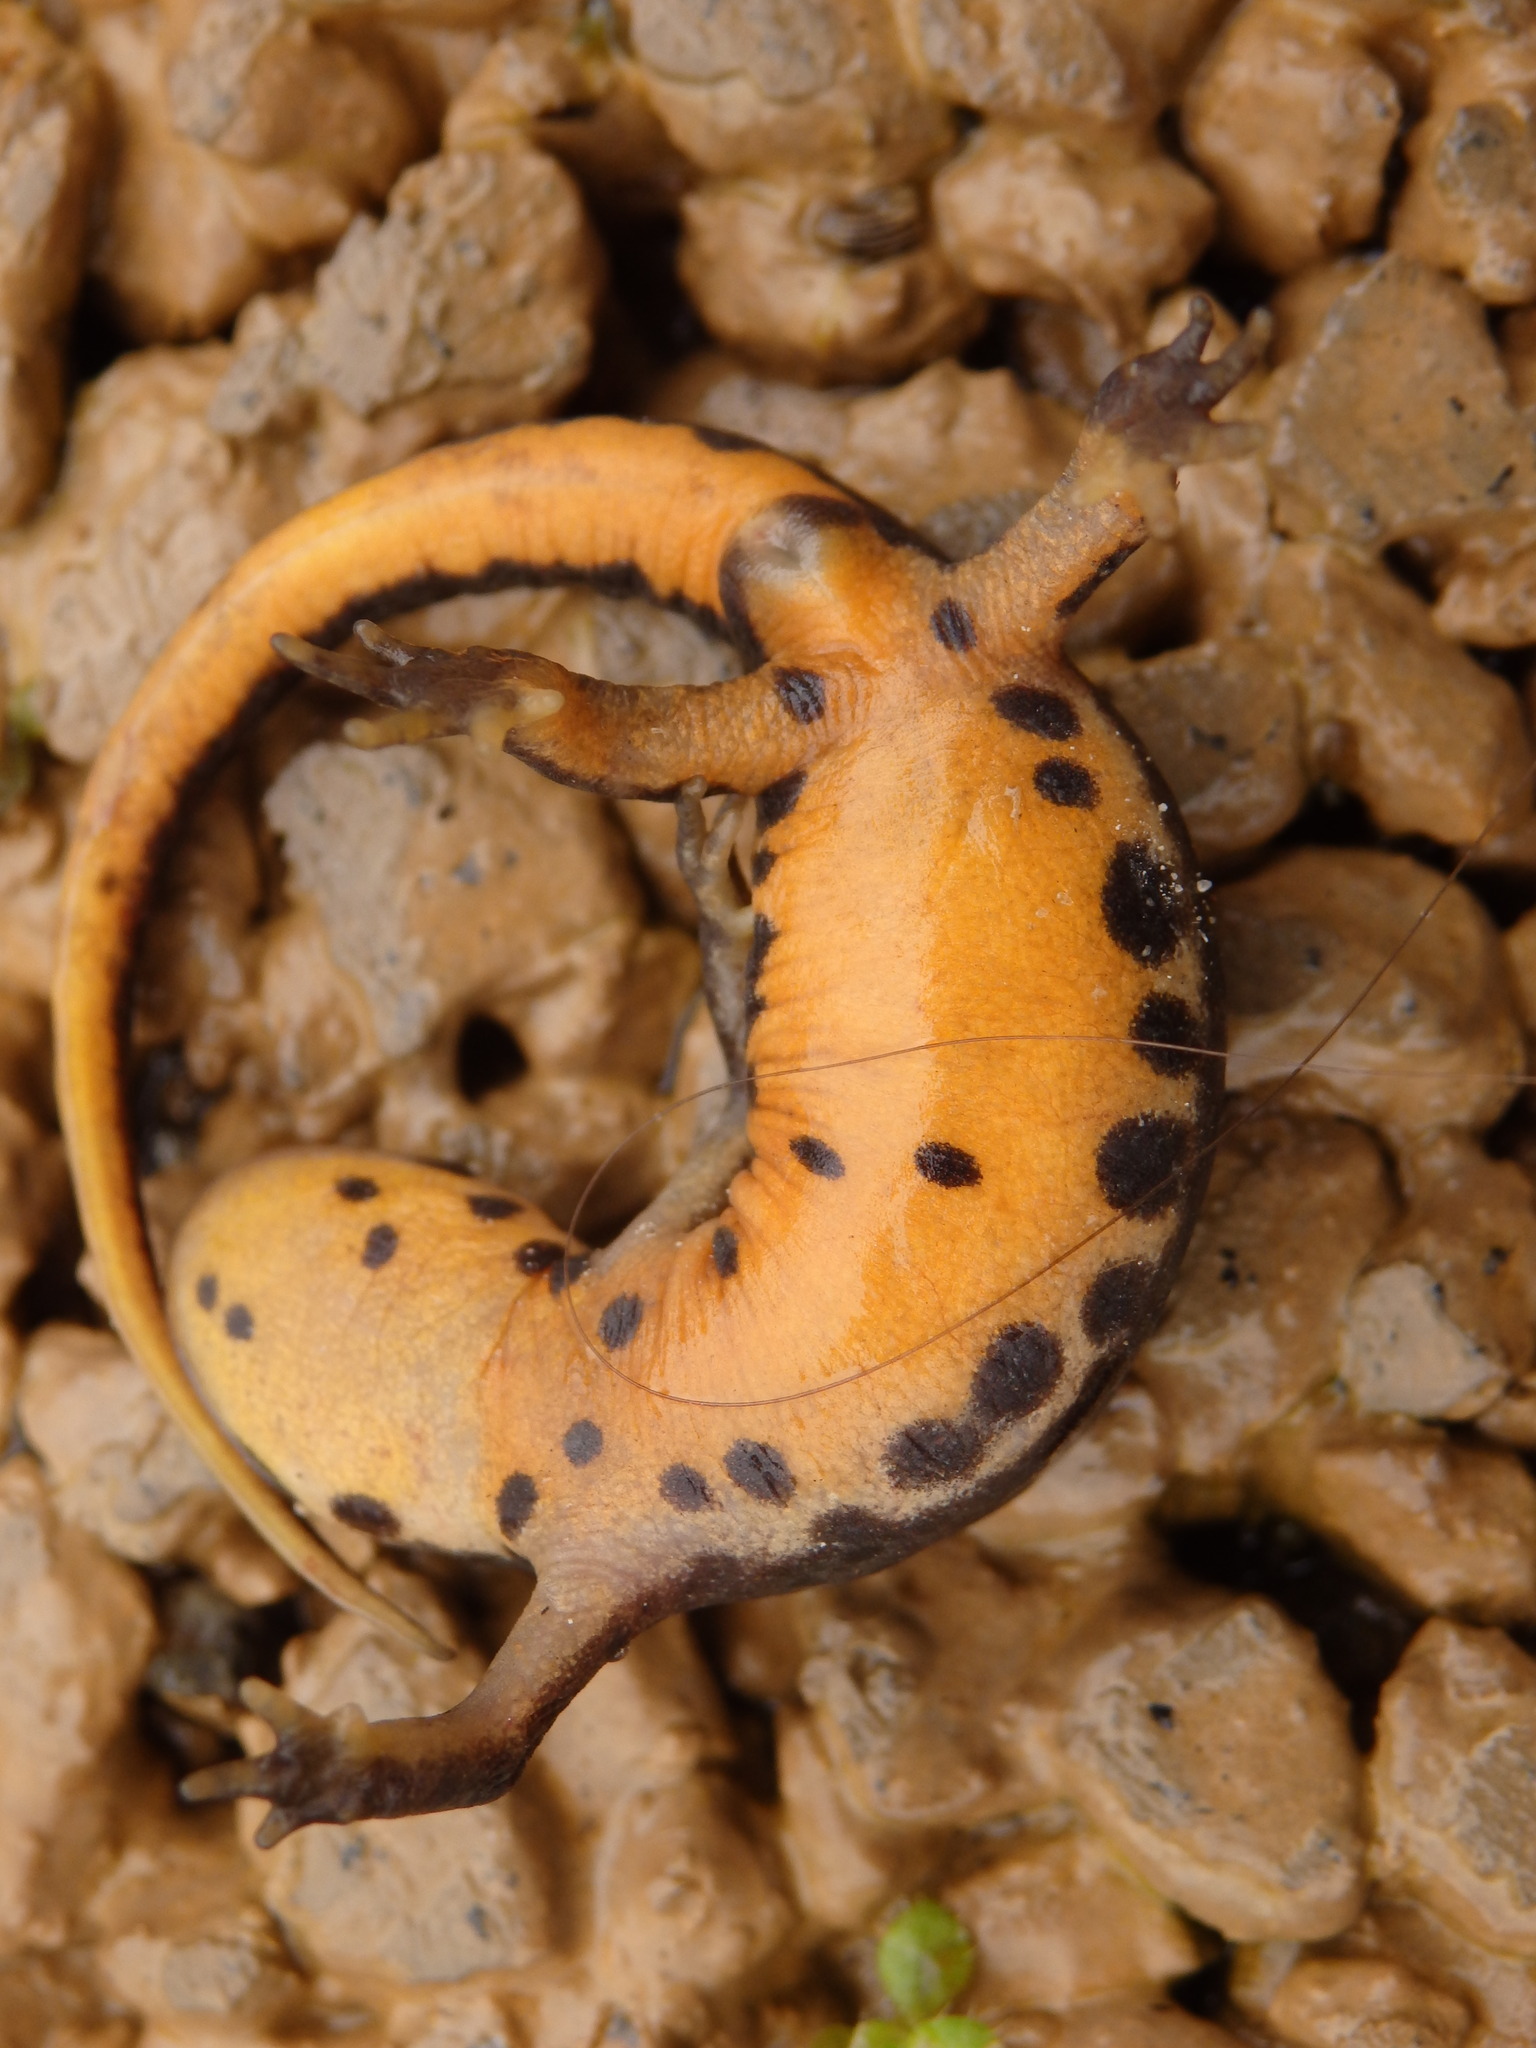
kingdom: Animalia
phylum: Chordata
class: Amphibia
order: Caudata
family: Salamandridae
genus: Lissotriton
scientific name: Lissotriton boscai
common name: Bosca's newt
